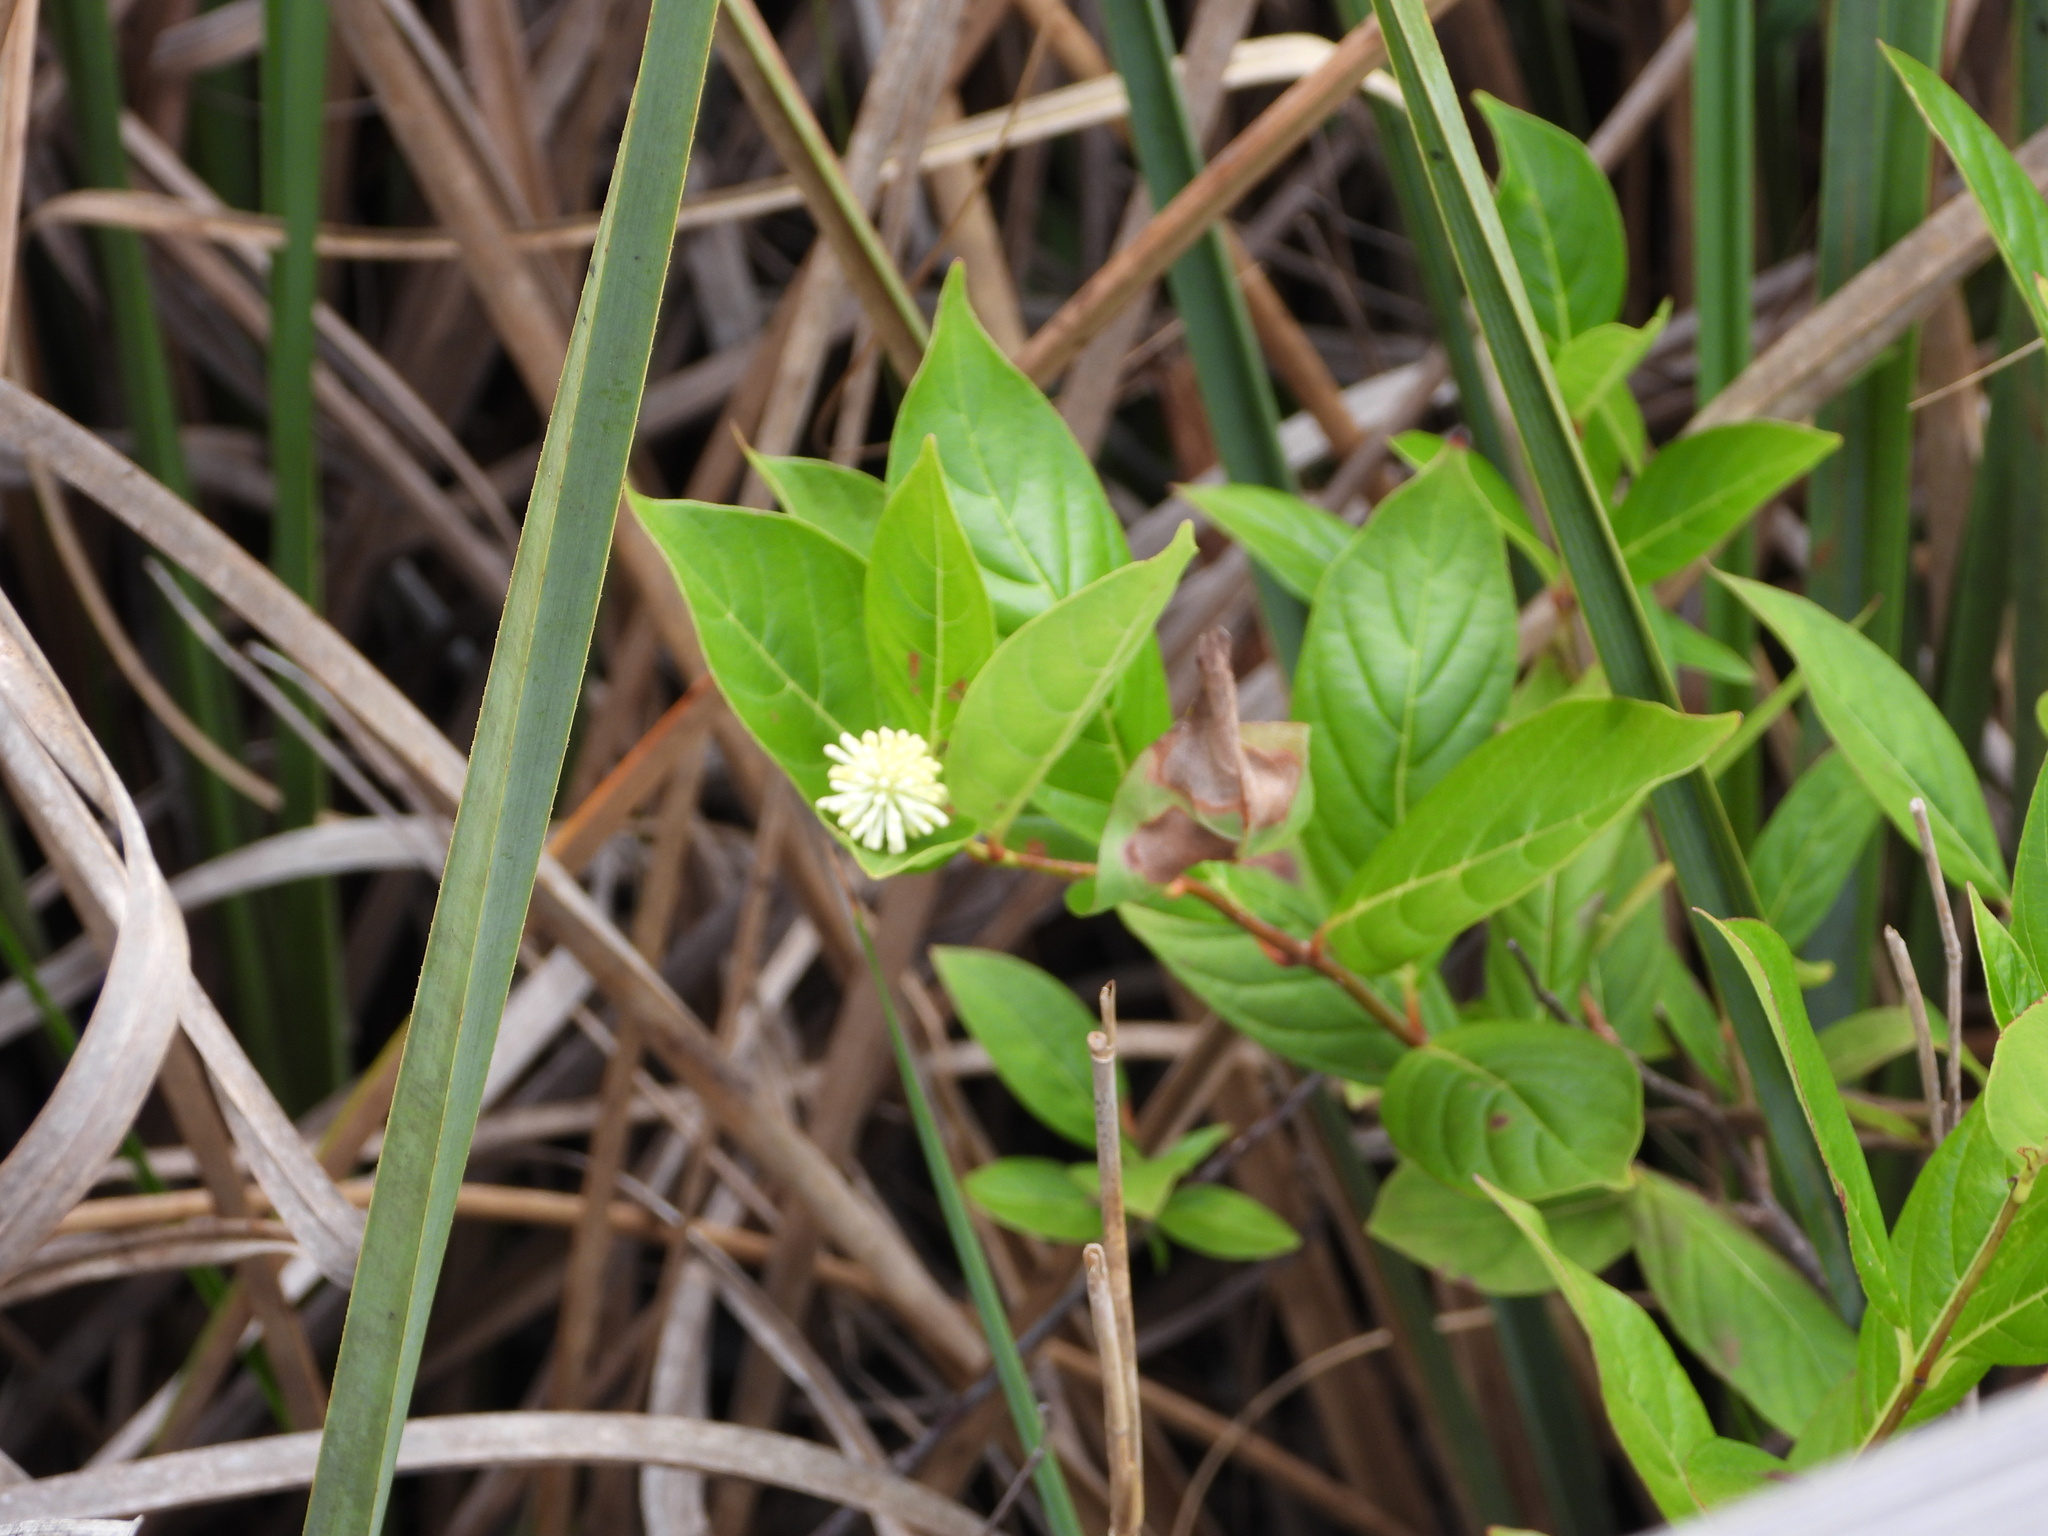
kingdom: Plantae
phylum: Tracheophyta
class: Magnoliopsida
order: Gentianales
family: Rubiaceae
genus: Cephalanthus
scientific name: Cephalanthus occidentalis
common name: Button-willow
